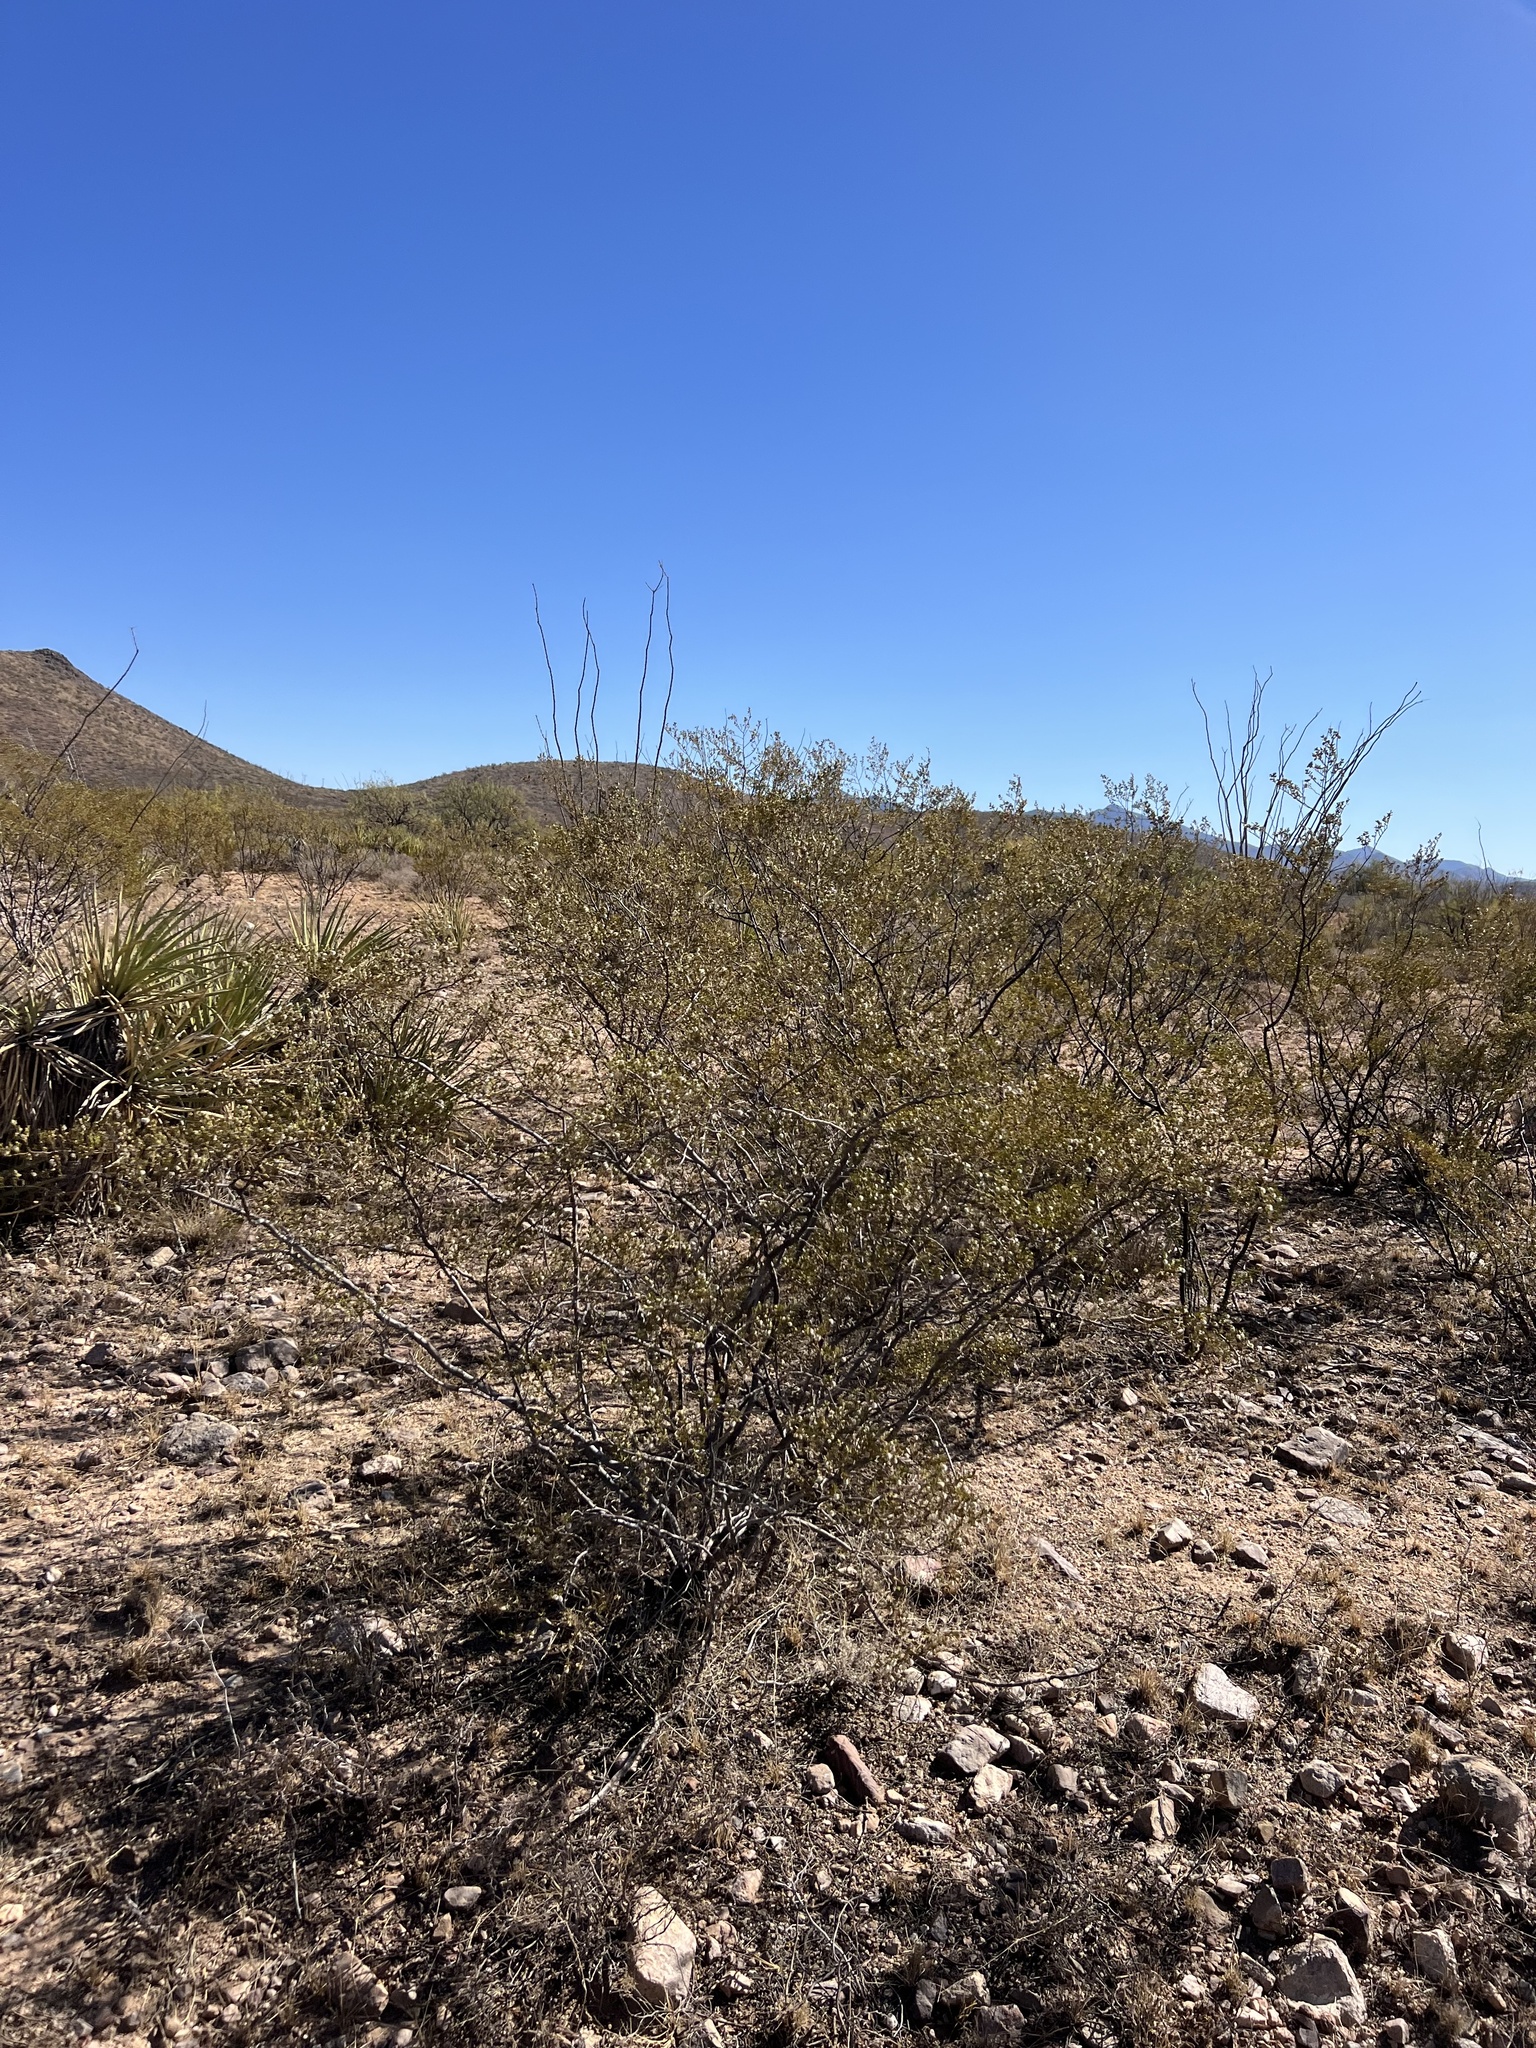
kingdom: Plantae
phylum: Tracheophyta
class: Magnoliopsida
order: Zygophyllales
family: Zygophyllaceae
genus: Larrea
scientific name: Larrea tridentata
